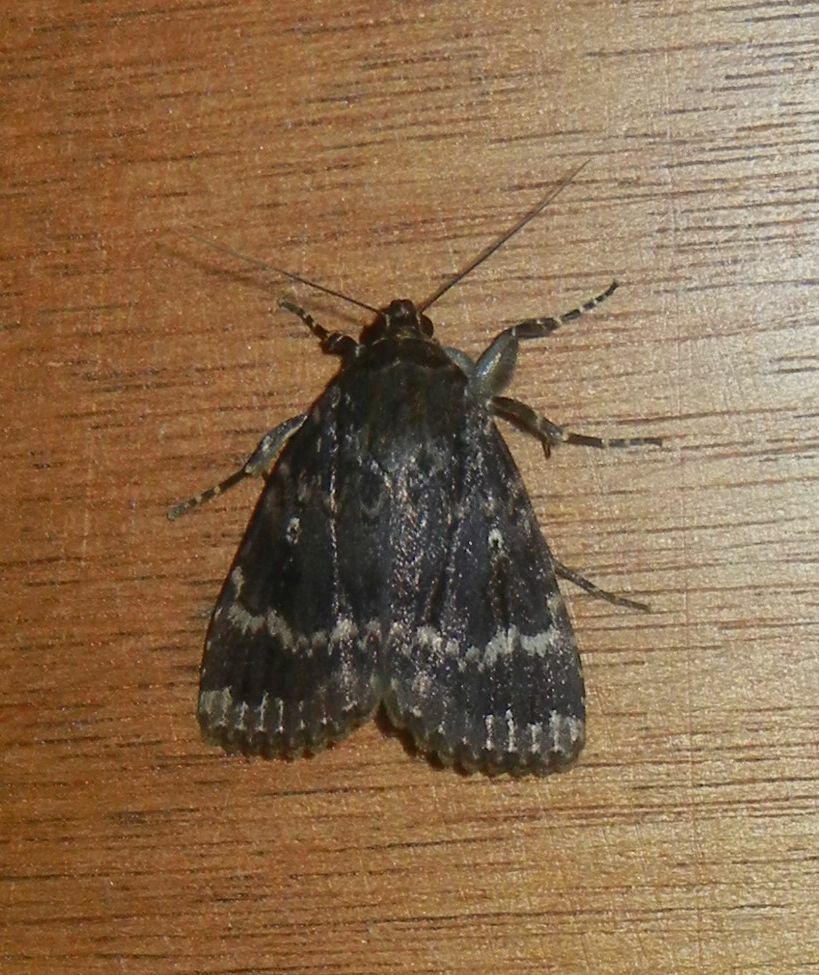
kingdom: Animalia
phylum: Arthropoda
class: Insecta
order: Lepidoptera
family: Noctuidae
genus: Amphipyra
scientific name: Amphipyra pyramidea
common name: Copper underwing
